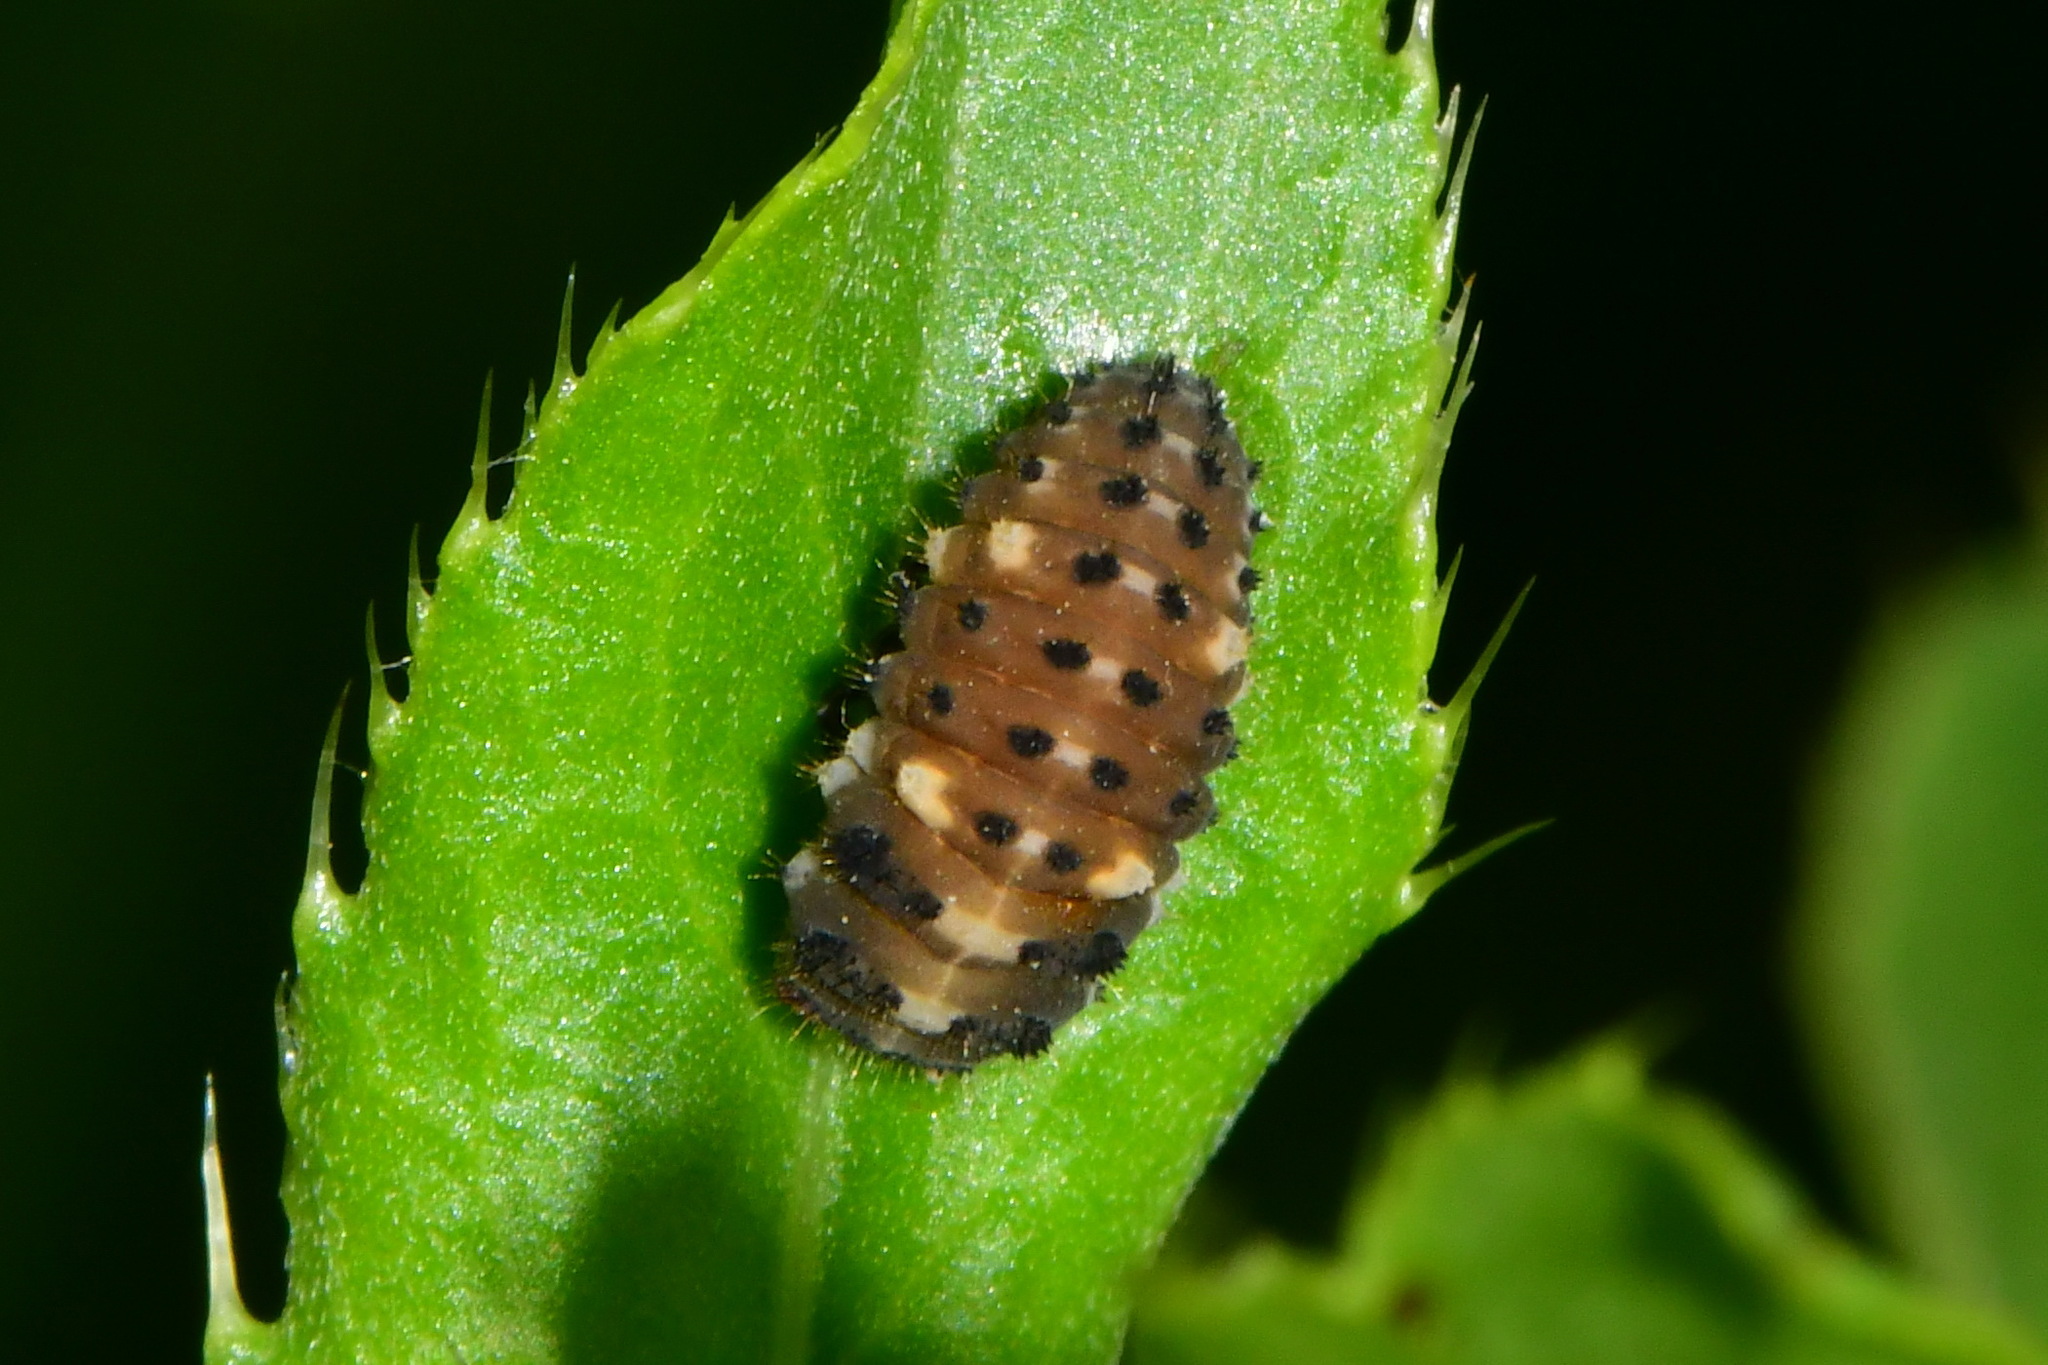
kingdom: Animalia
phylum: Arthropoda
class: Insecta
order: Coleoptera
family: Coccinellidae
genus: Ceratomegilla
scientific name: Ceratomegilla notata
